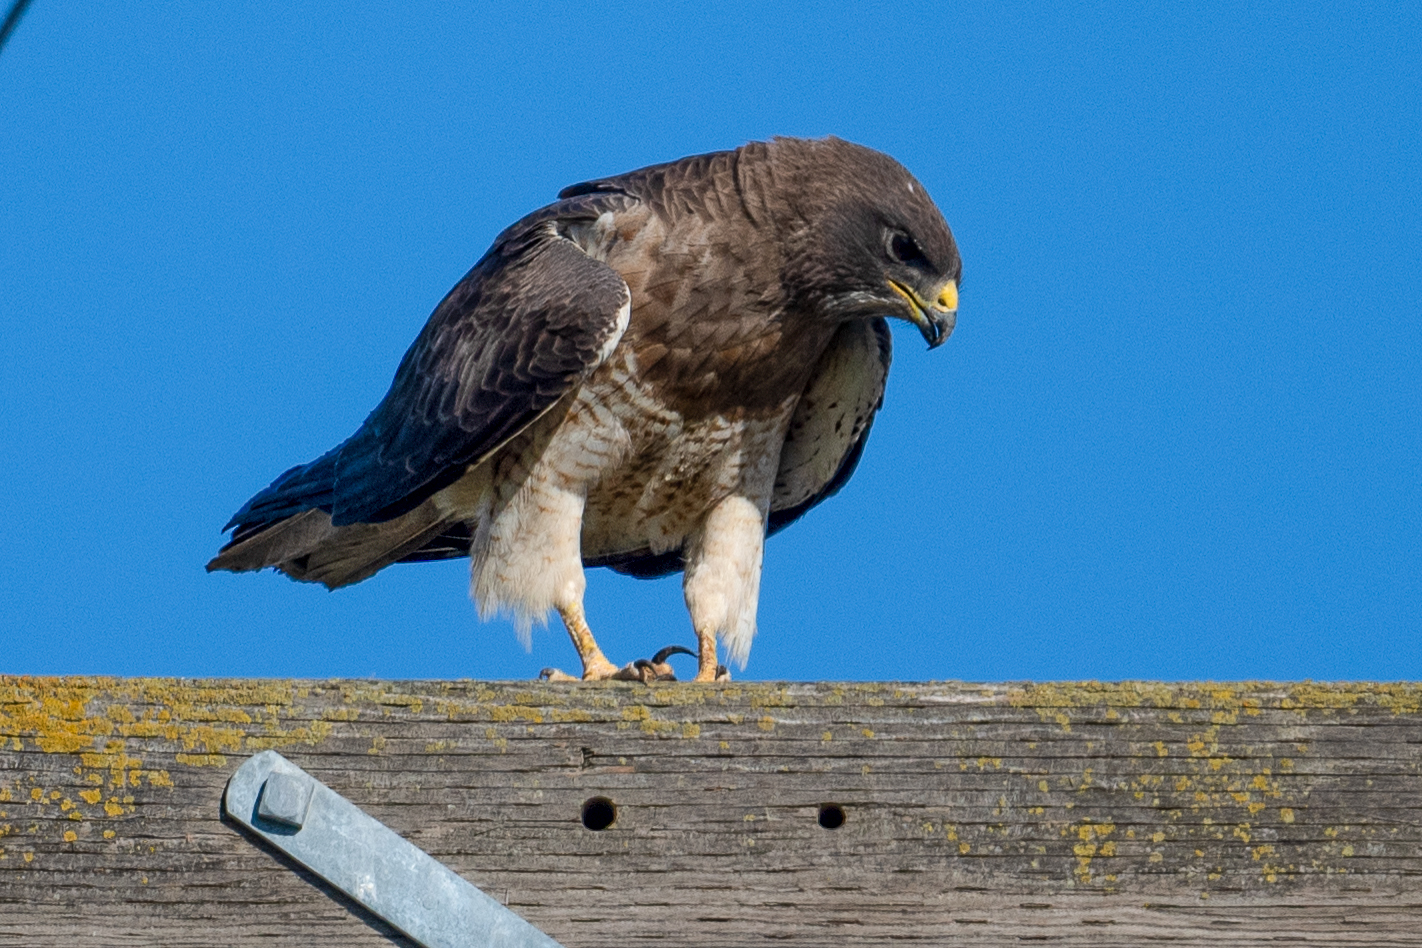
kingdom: Animalia
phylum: Chordata
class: Aves
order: Accipitriformes
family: Accipitridae
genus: Buteo
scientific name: Buteo swainsoni
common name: Swainson's hawk
